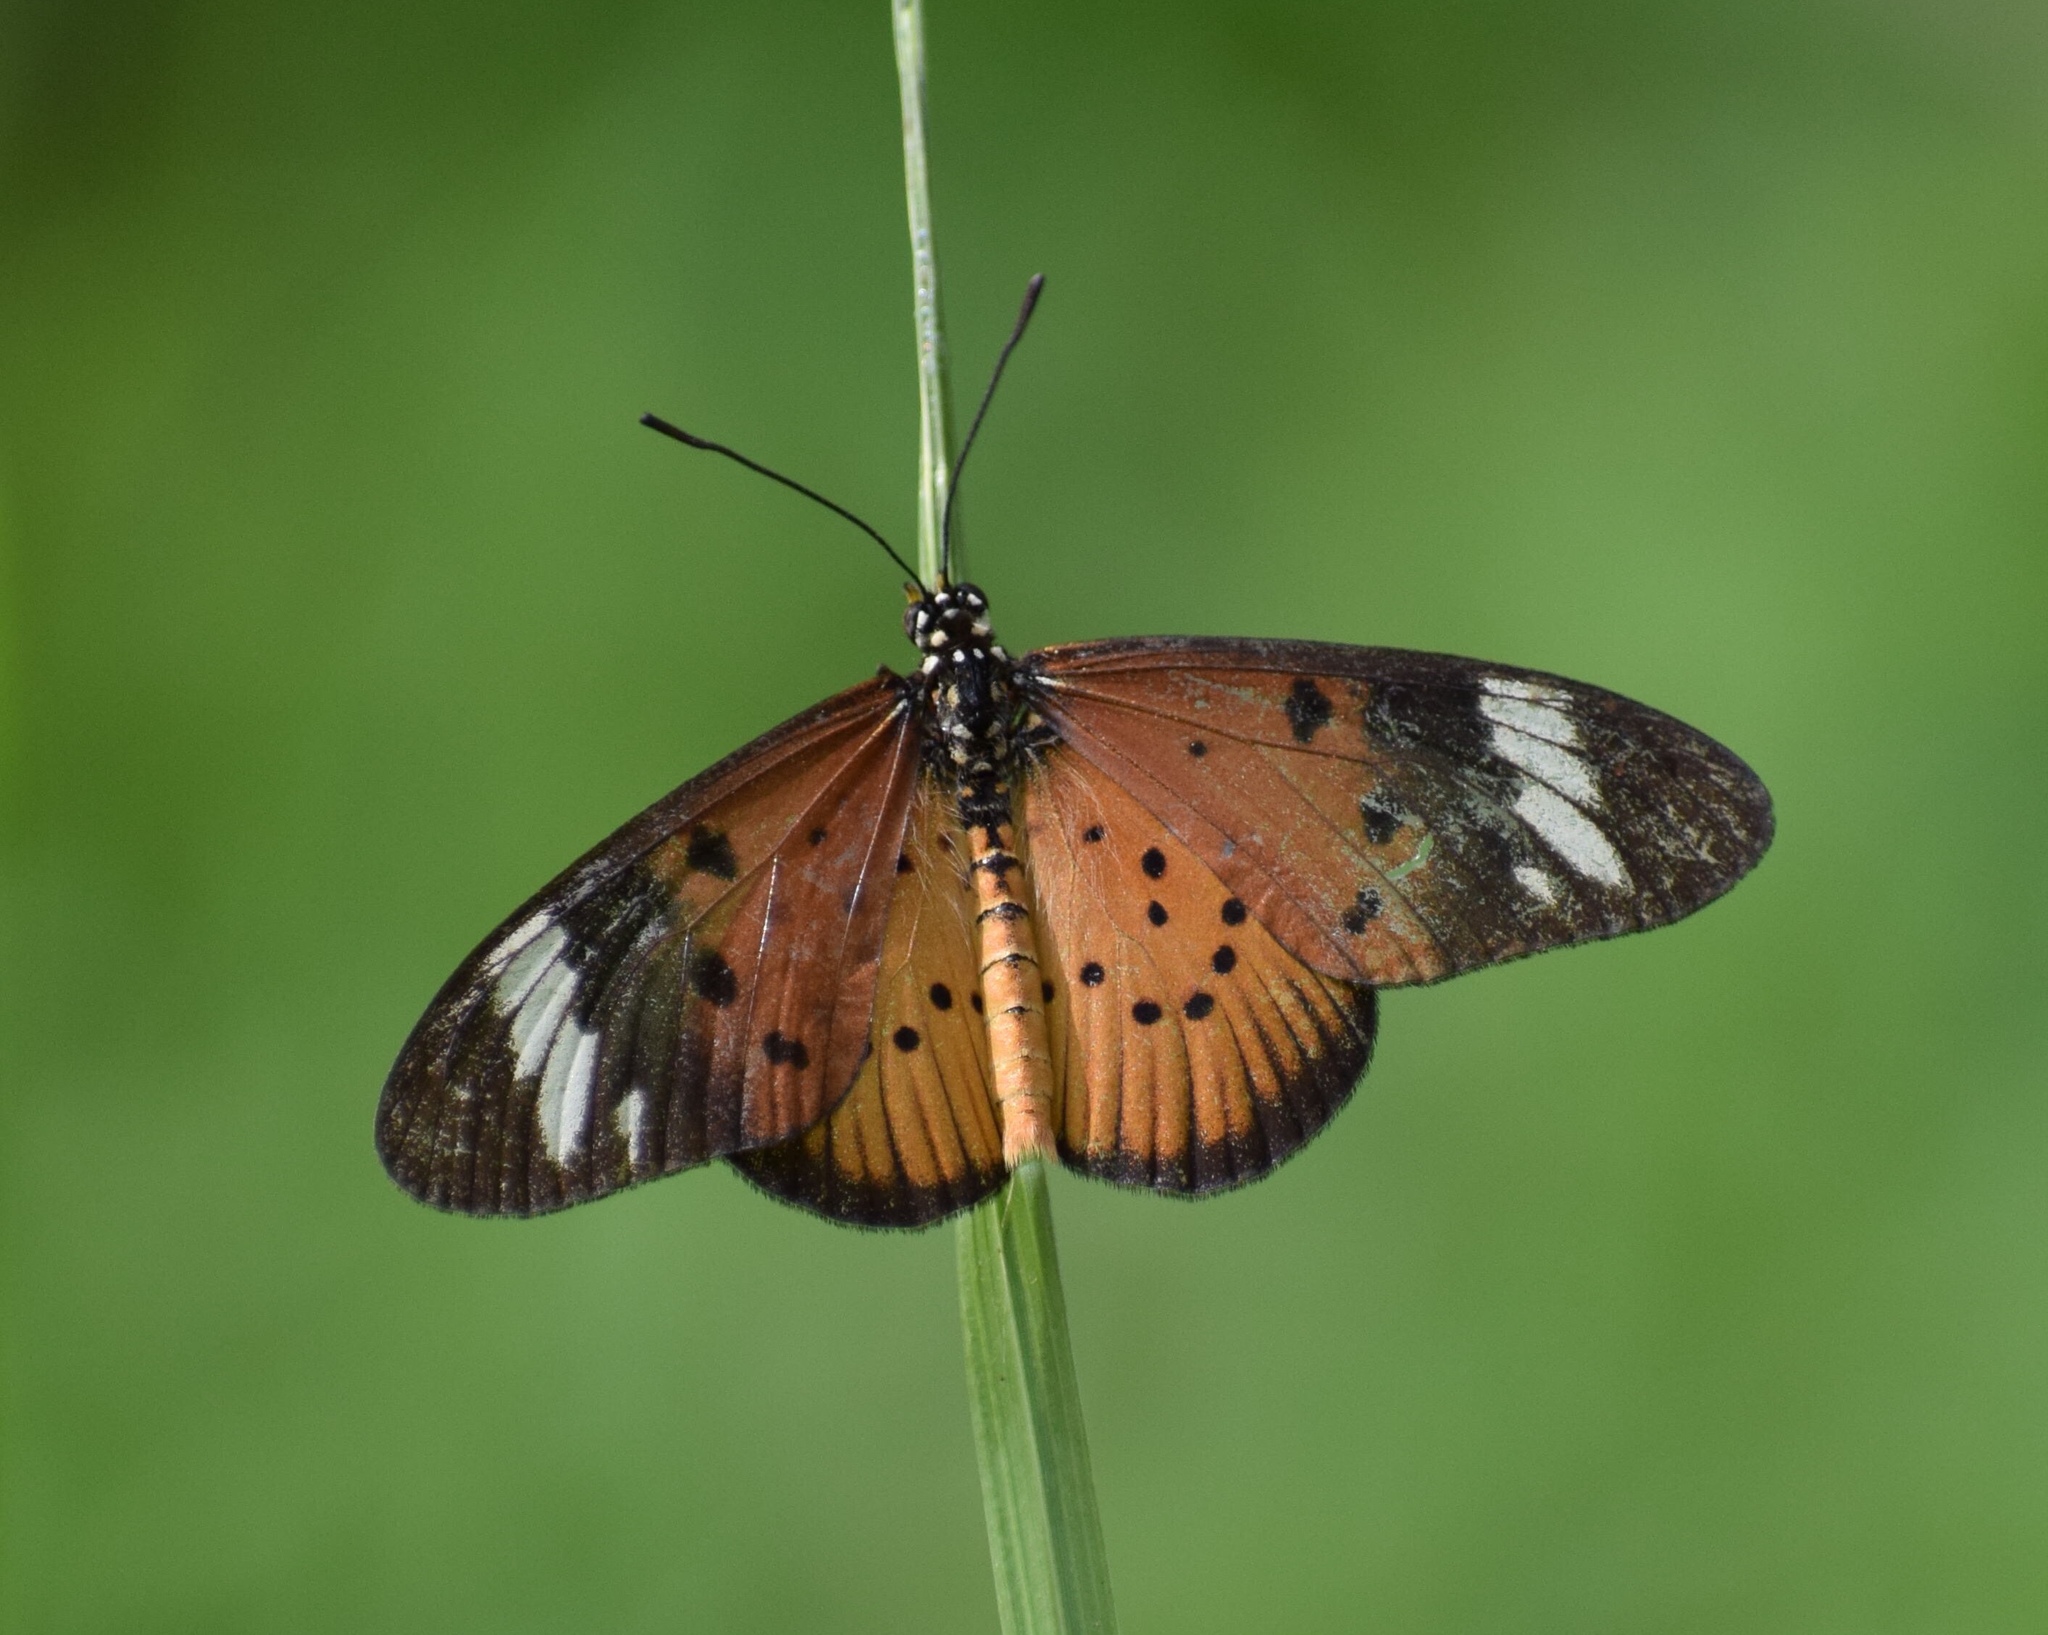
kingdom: Animalia
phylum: Arthropoda
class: Insecta
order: Lepidoptera
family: Nymphalidae
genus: Acraea
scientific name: Acraea Telchinia encedon
